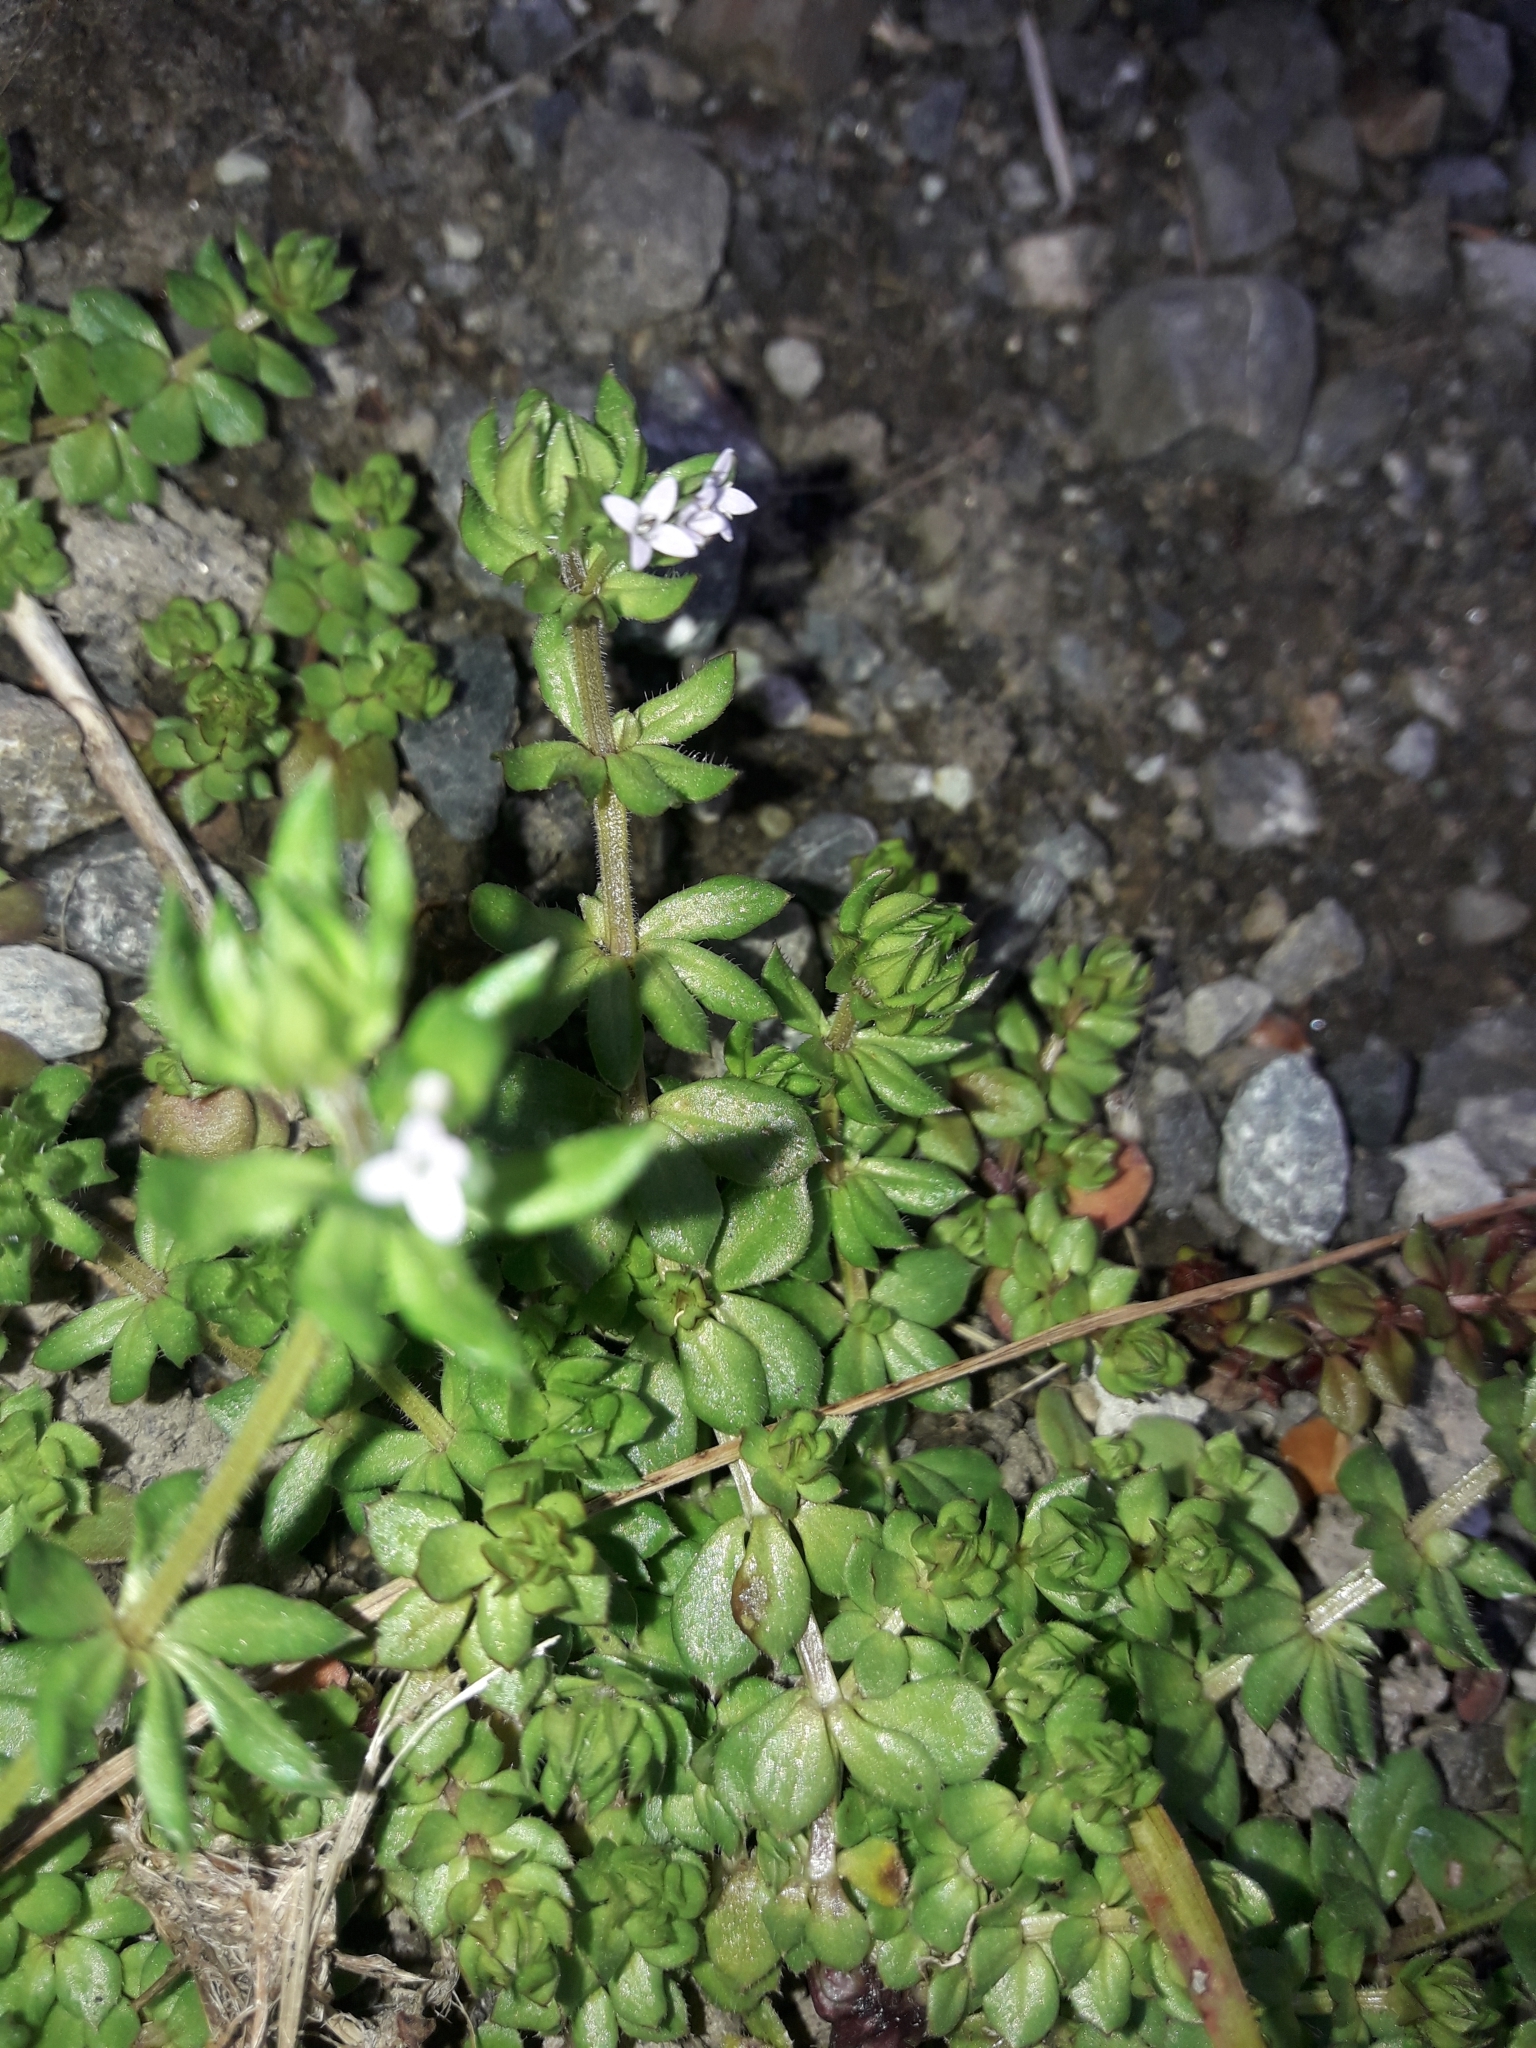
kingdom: Plantae
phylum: Tracheophyta
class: Magnoliopsida
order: Gentianales
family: Rubiaceae
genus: Sherardia
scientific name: Sherardia arvensis
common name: Field madder
